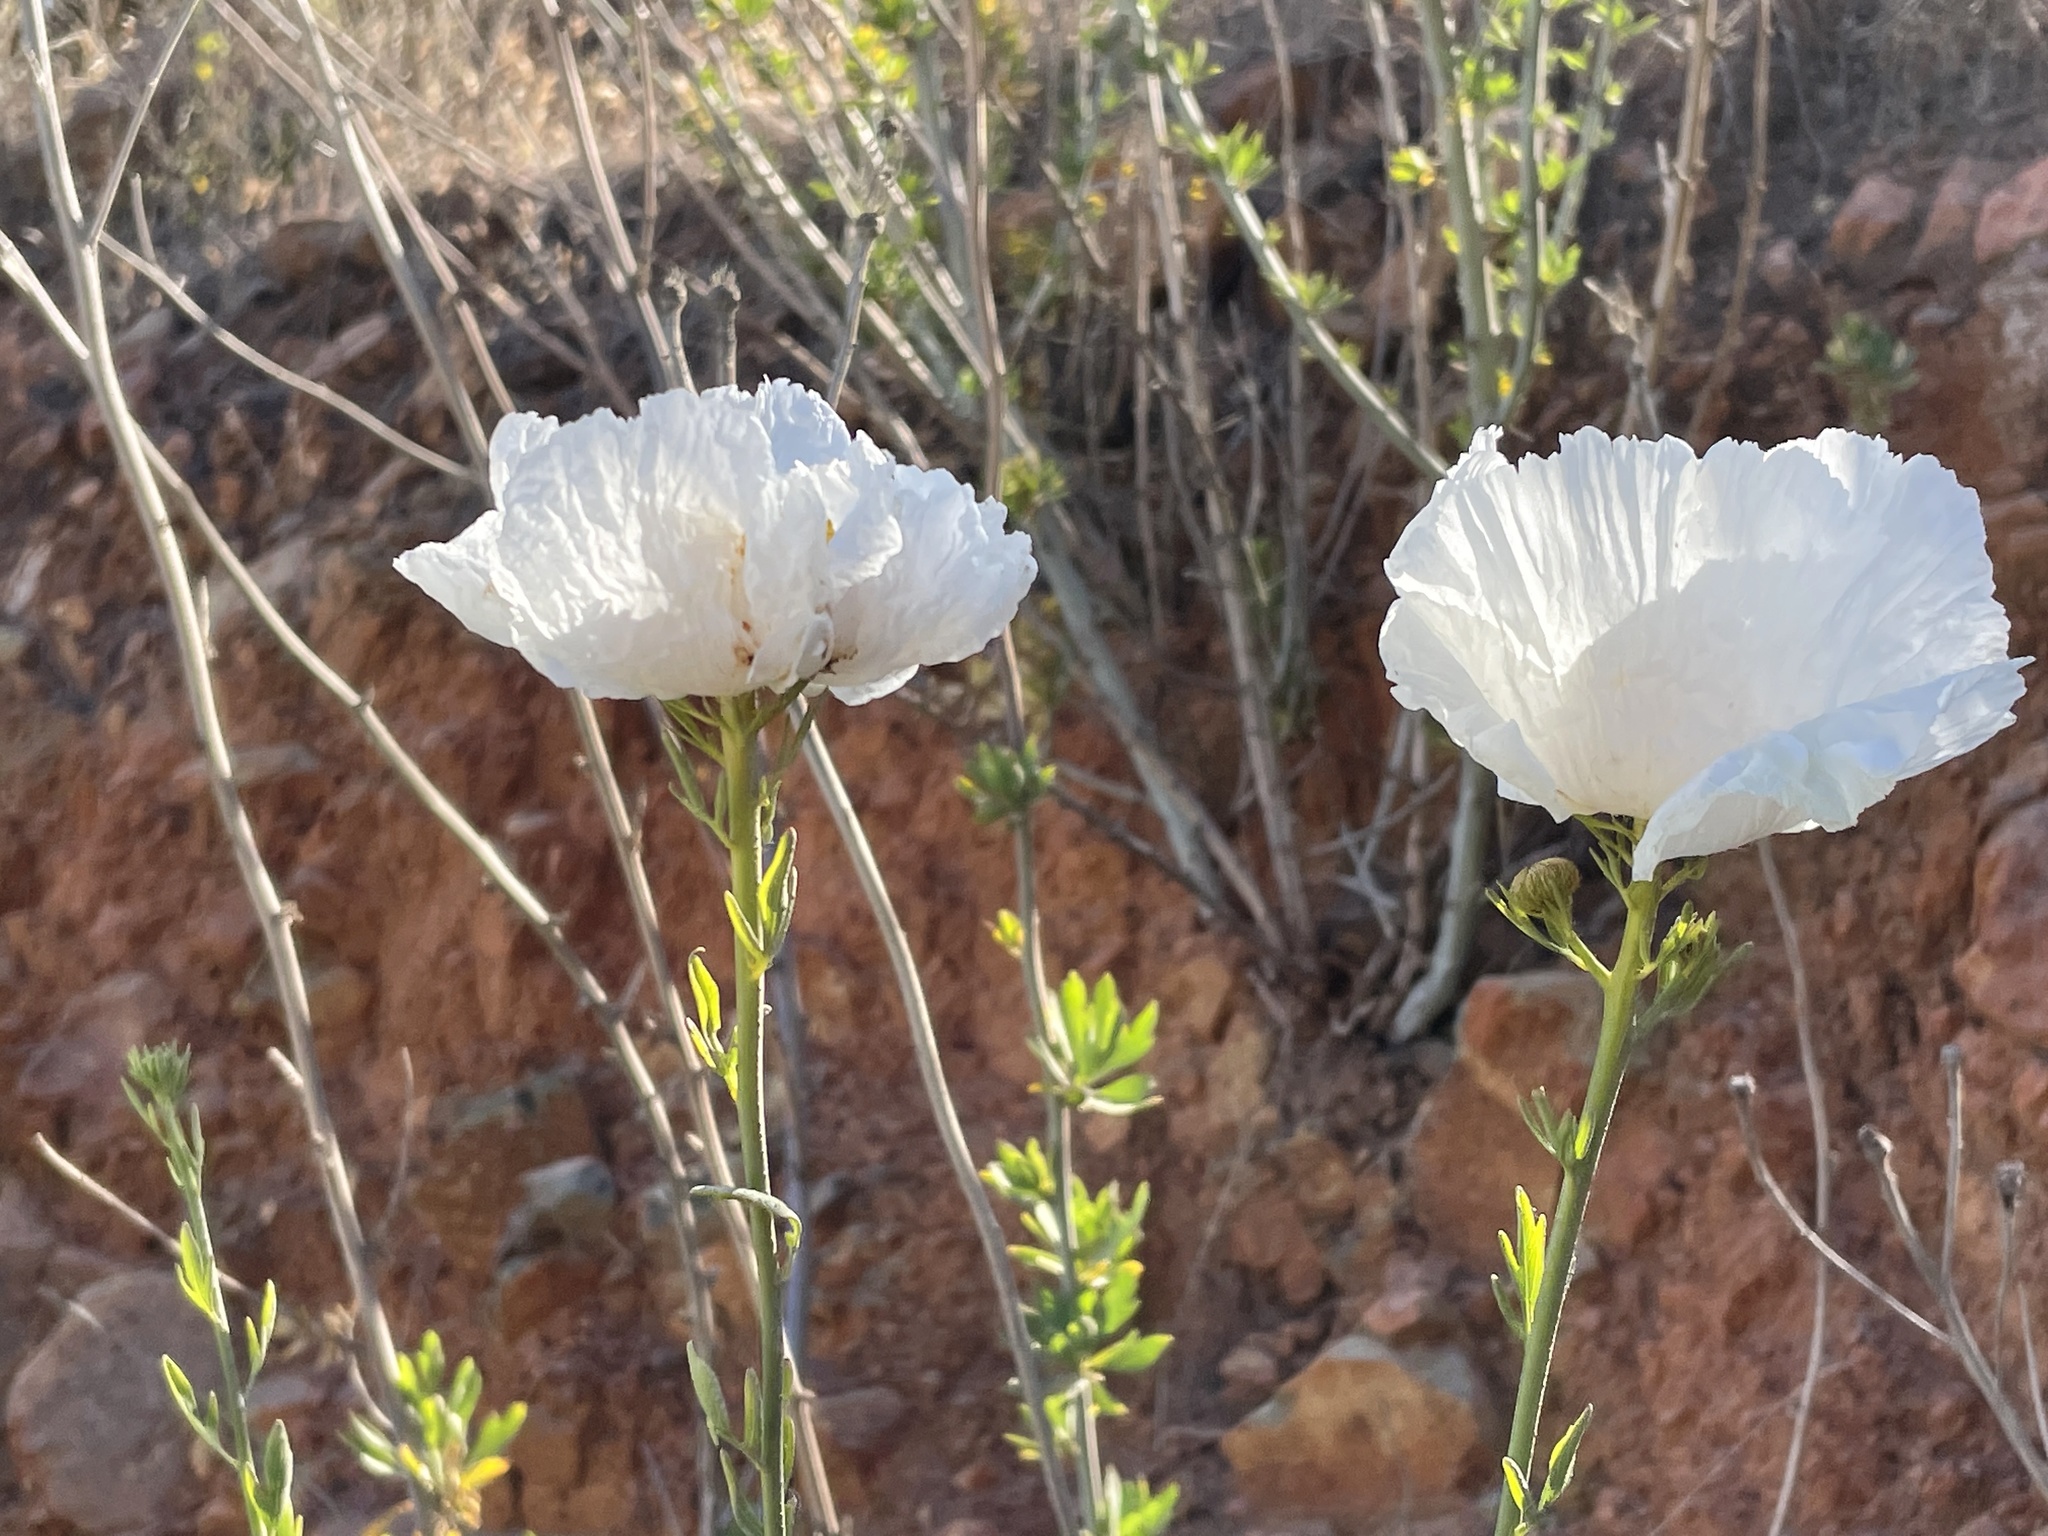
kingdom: Plantae
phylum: Tracheophyta
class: Magnoliopsida
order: Ranunculales
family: Papaveraceae
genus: Romneya
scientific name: Romneya trichocalyx
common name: Hairy matilija-poppy
